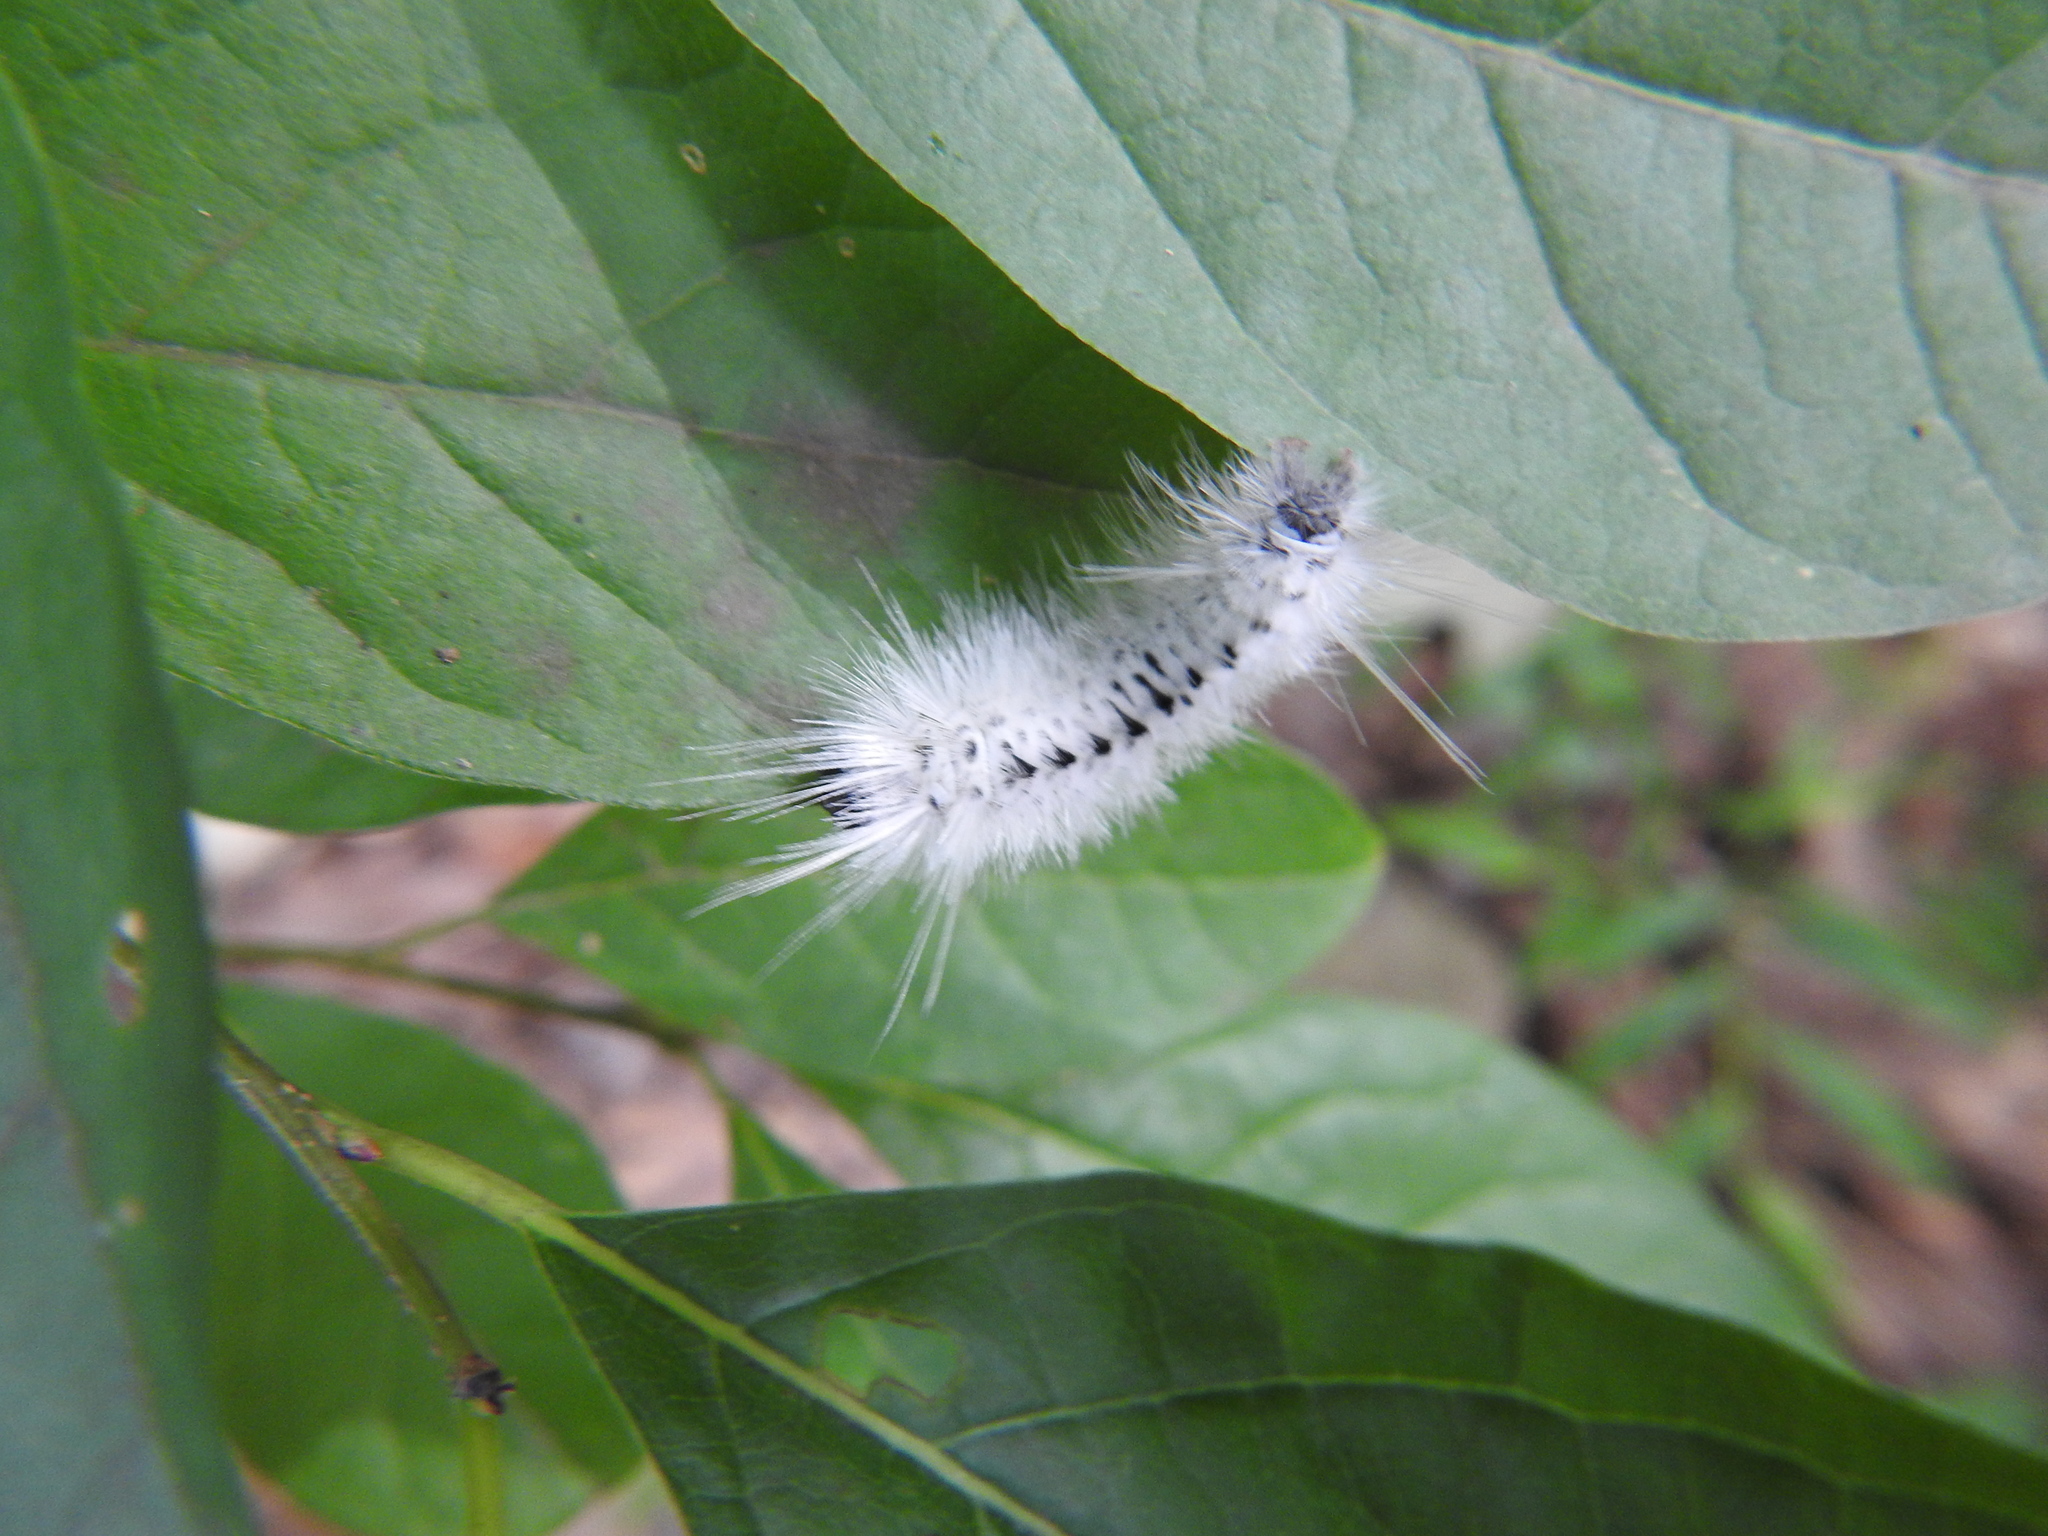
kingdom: Animalia
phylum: Arthropoda
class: Insecta
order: Lepidoptera
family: Erebidae
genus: Lophocampa
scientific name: Lophocampa caryae
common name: Hickory tussock moth
